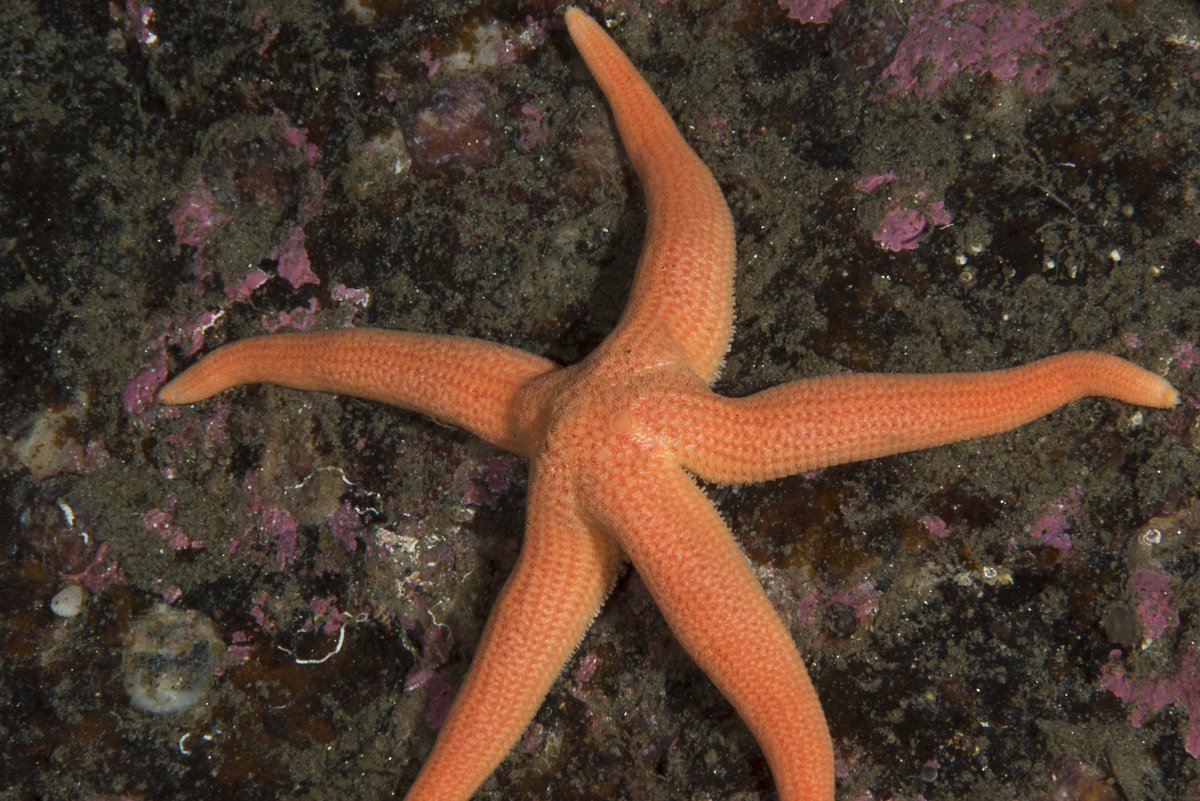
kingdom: Animalia
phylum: Echinodermata
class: Asteroidea
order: Forcipulatida
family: Stichasteridae
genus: Stichastrella
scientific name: Stichastrella rosea
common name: Rosy starfish
